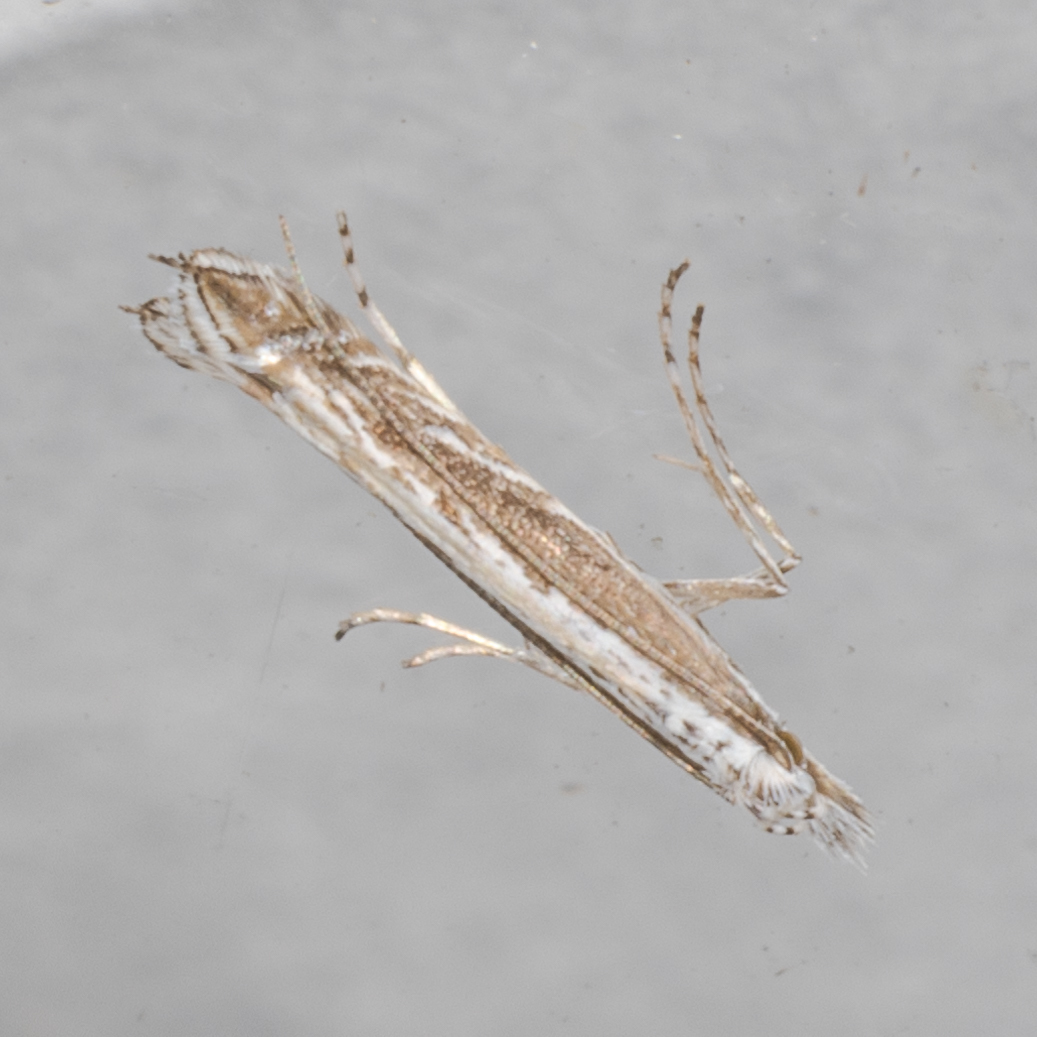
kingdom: Plantae
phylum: Rhodophyta
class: Florideophyceae
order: Gracilariales
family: Gracilariaceae
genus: Gracilaria
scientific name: Gracilaria
